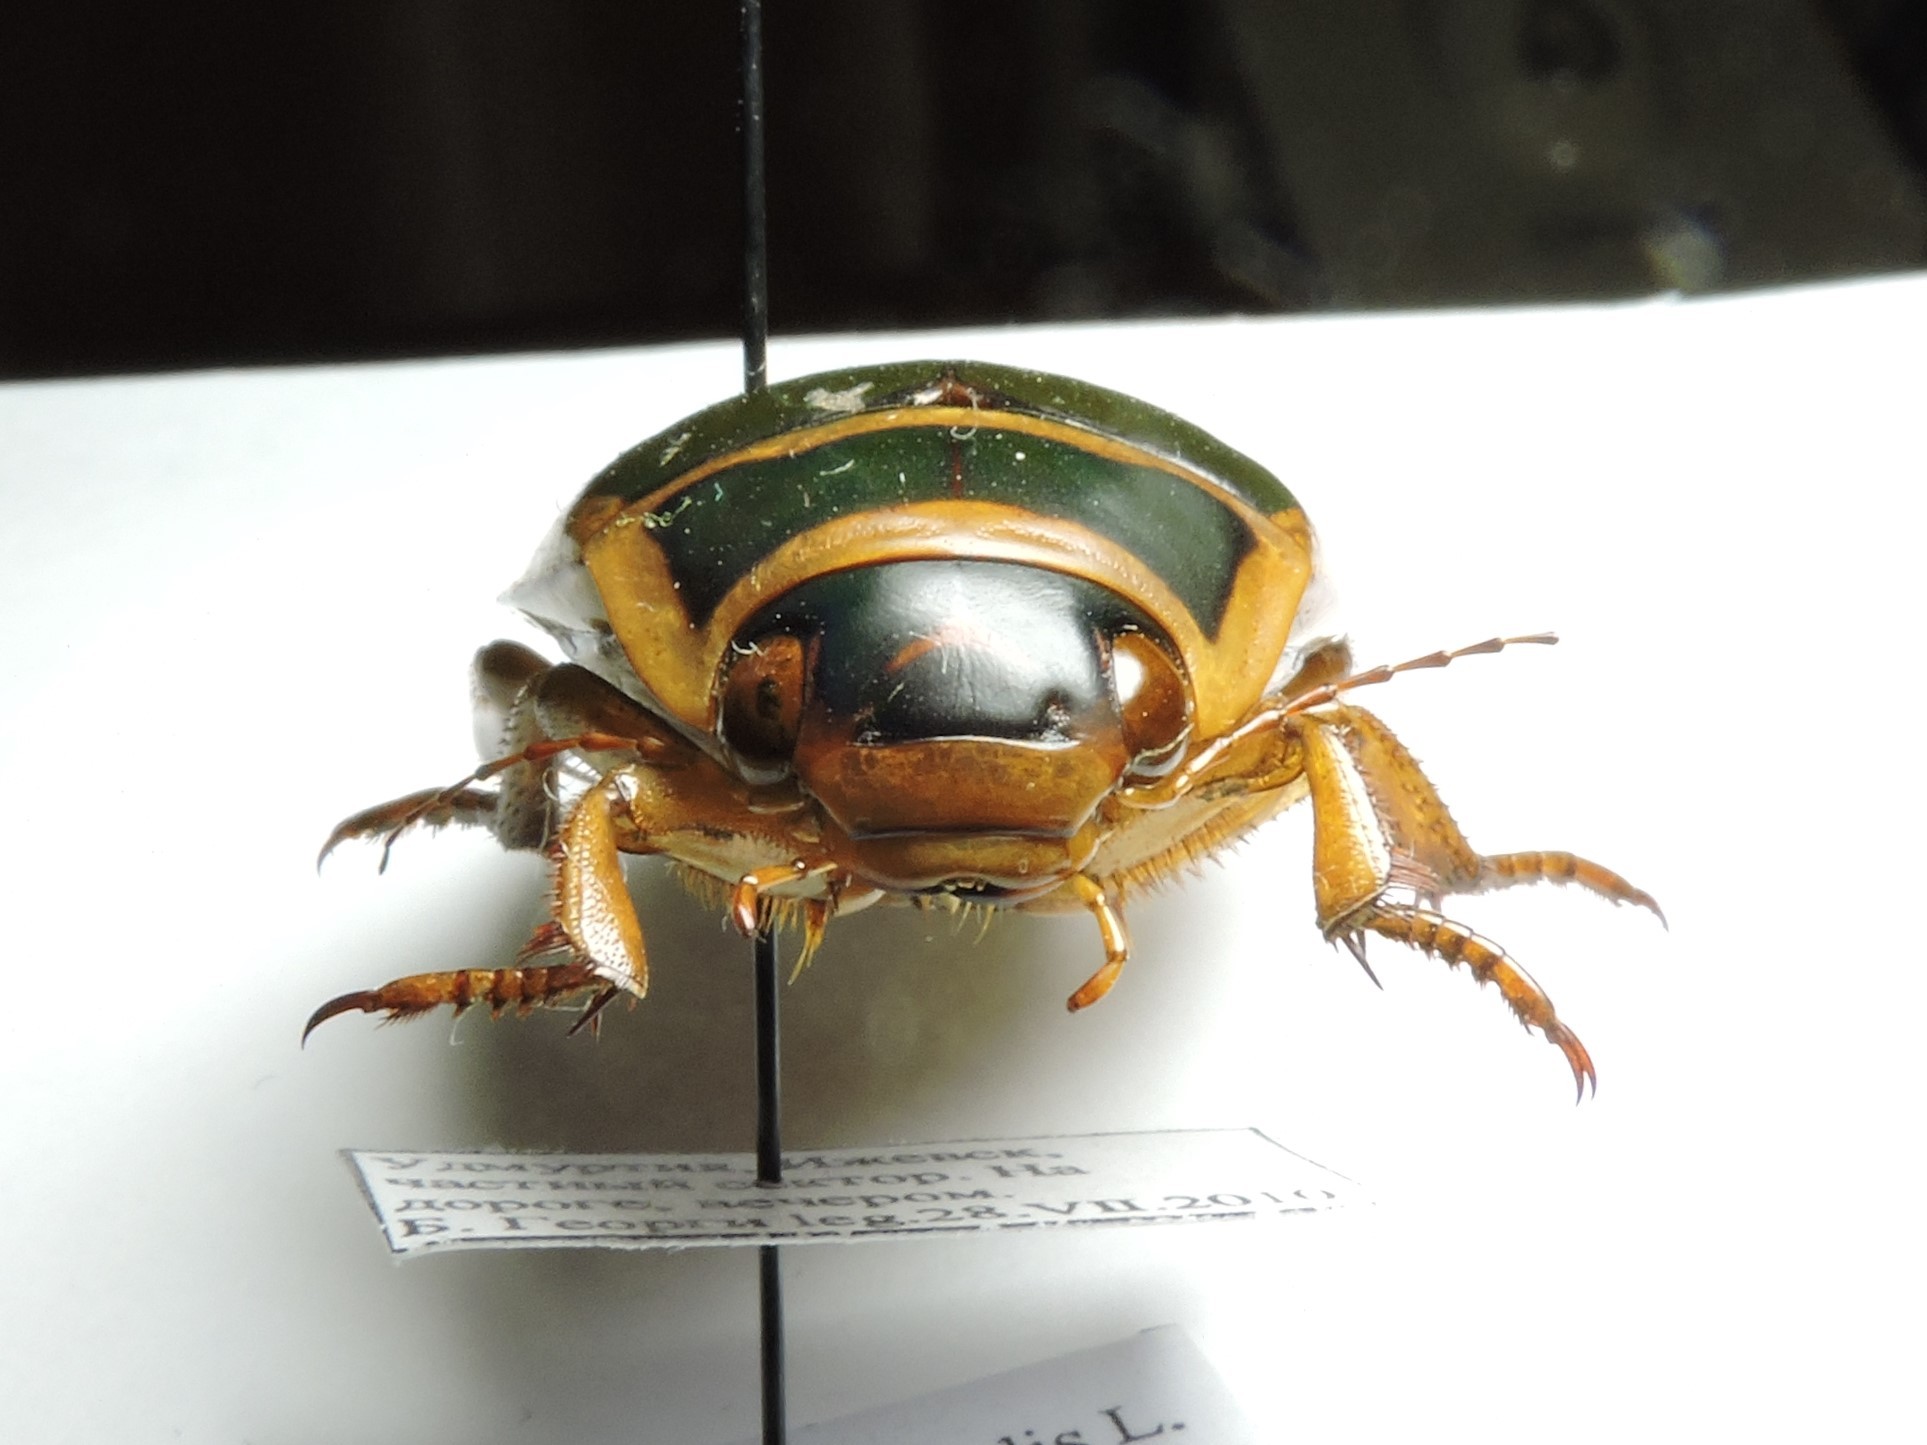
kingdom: Animalia
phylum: Arthropoda
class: Insecta
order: Coleoptera
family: Dytiscidae
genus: Dytiscus
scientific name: Dytiscus marginalis
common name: Great water beetle
